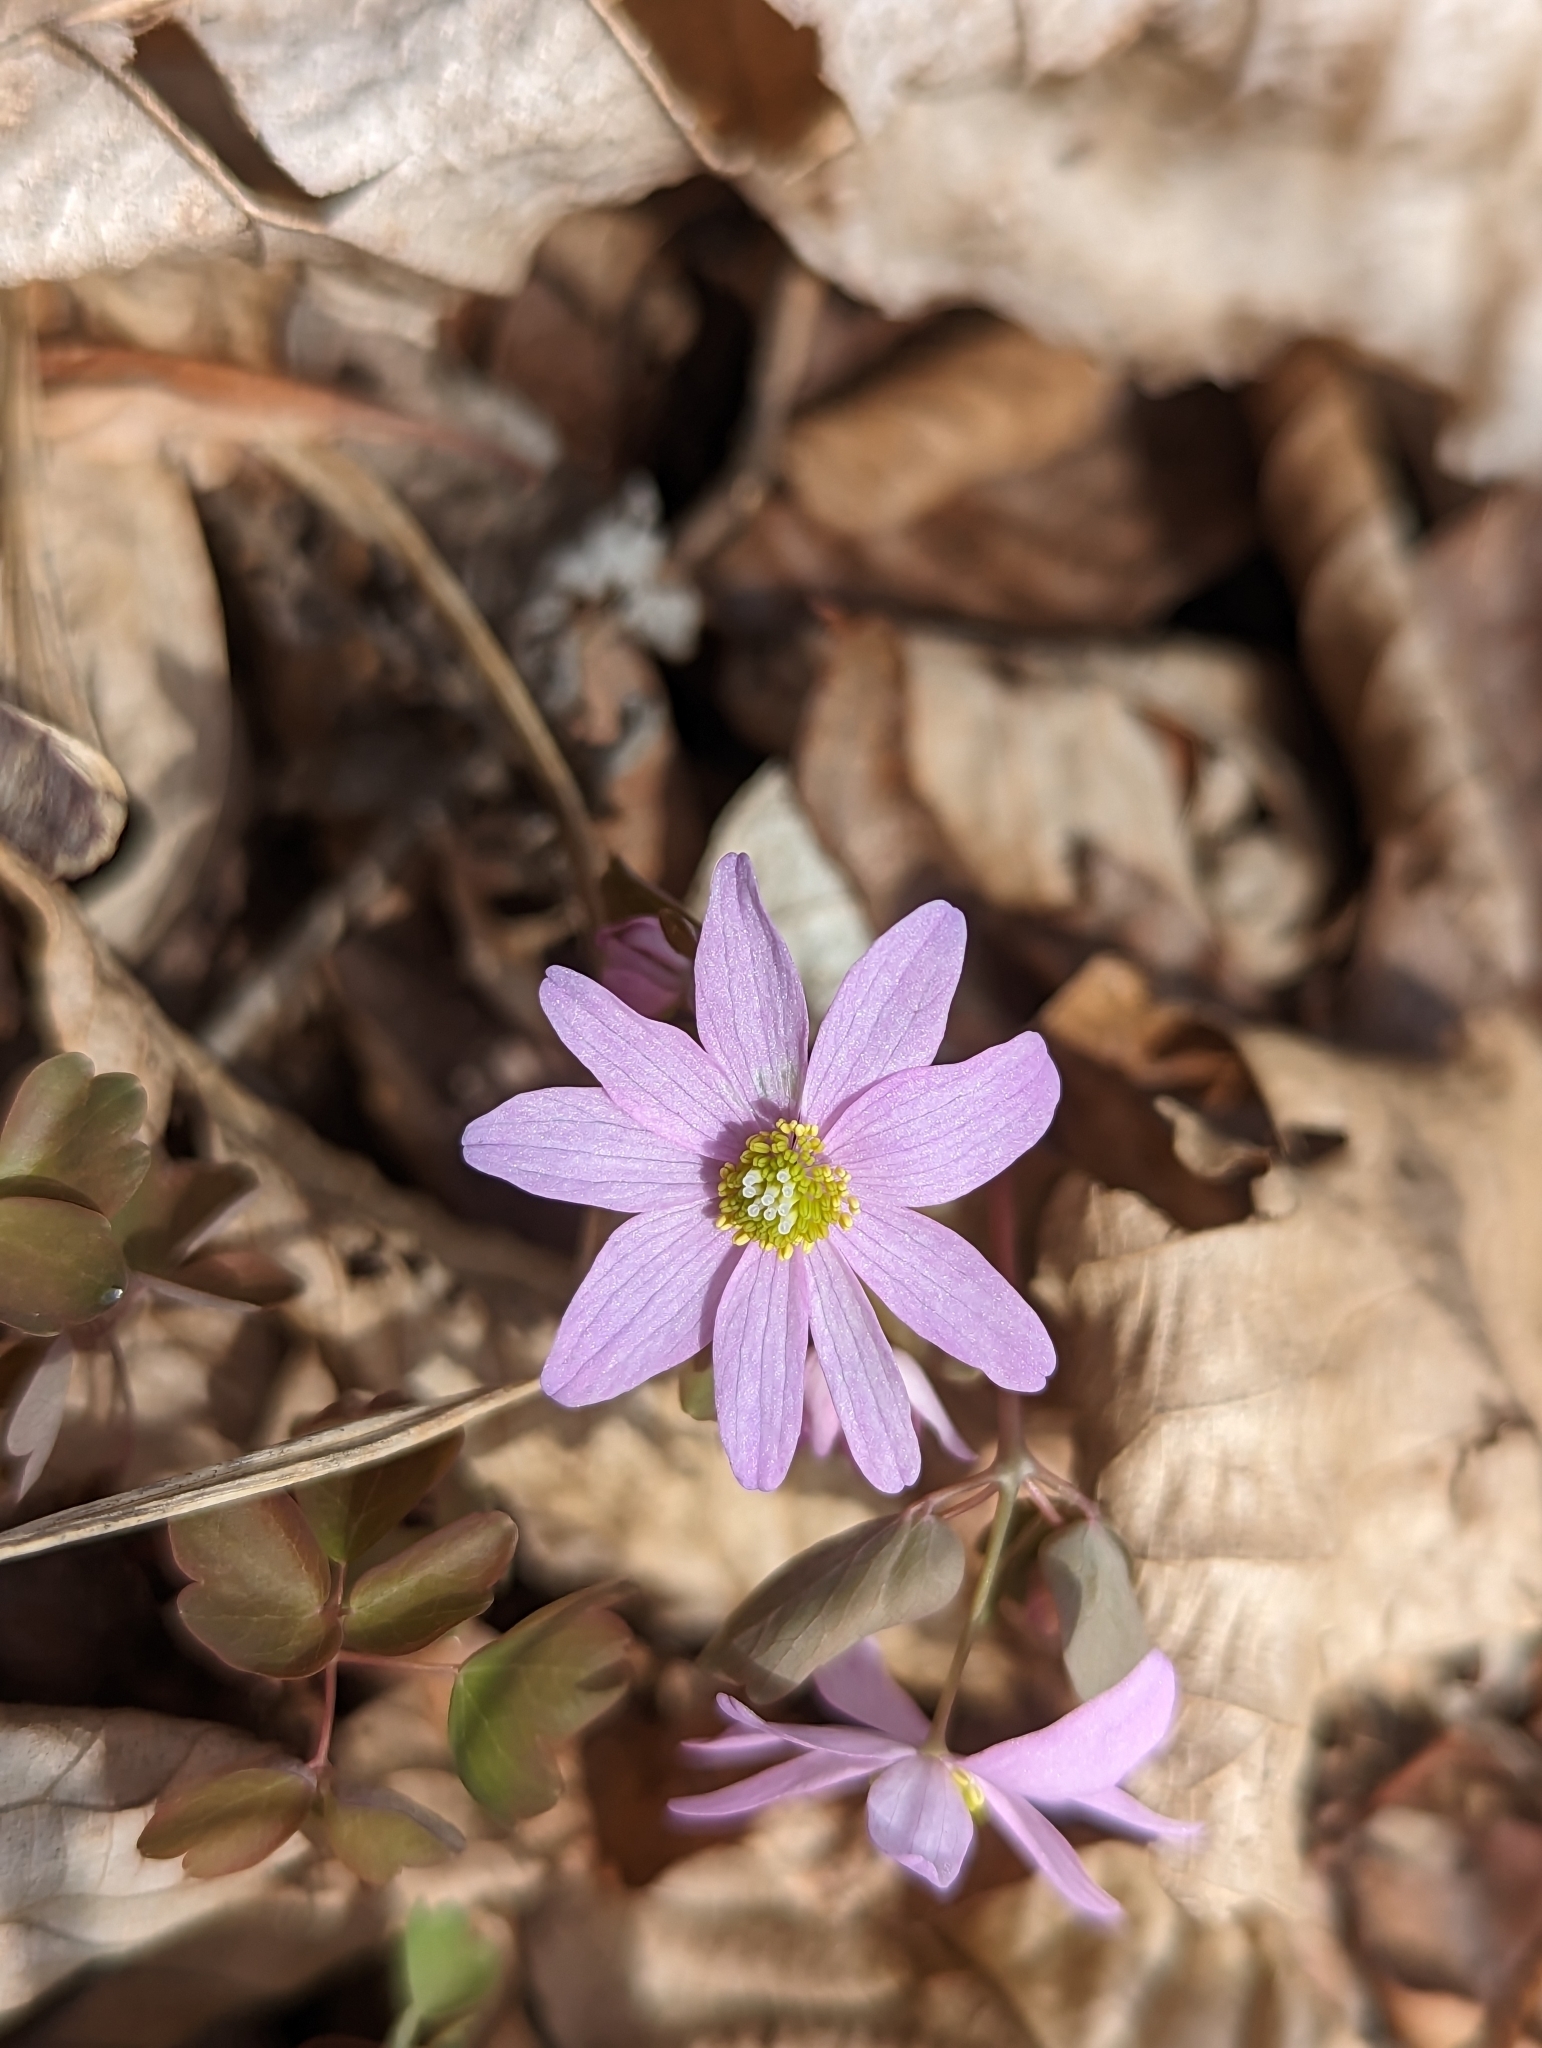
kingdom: Plantae
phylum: Tracheophyta
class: Magnoliopsida
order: Ranunculales
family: Ranunculaceae
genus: Thalictrum
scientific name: Thalictrum thalictroides
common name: Rue-anemone
